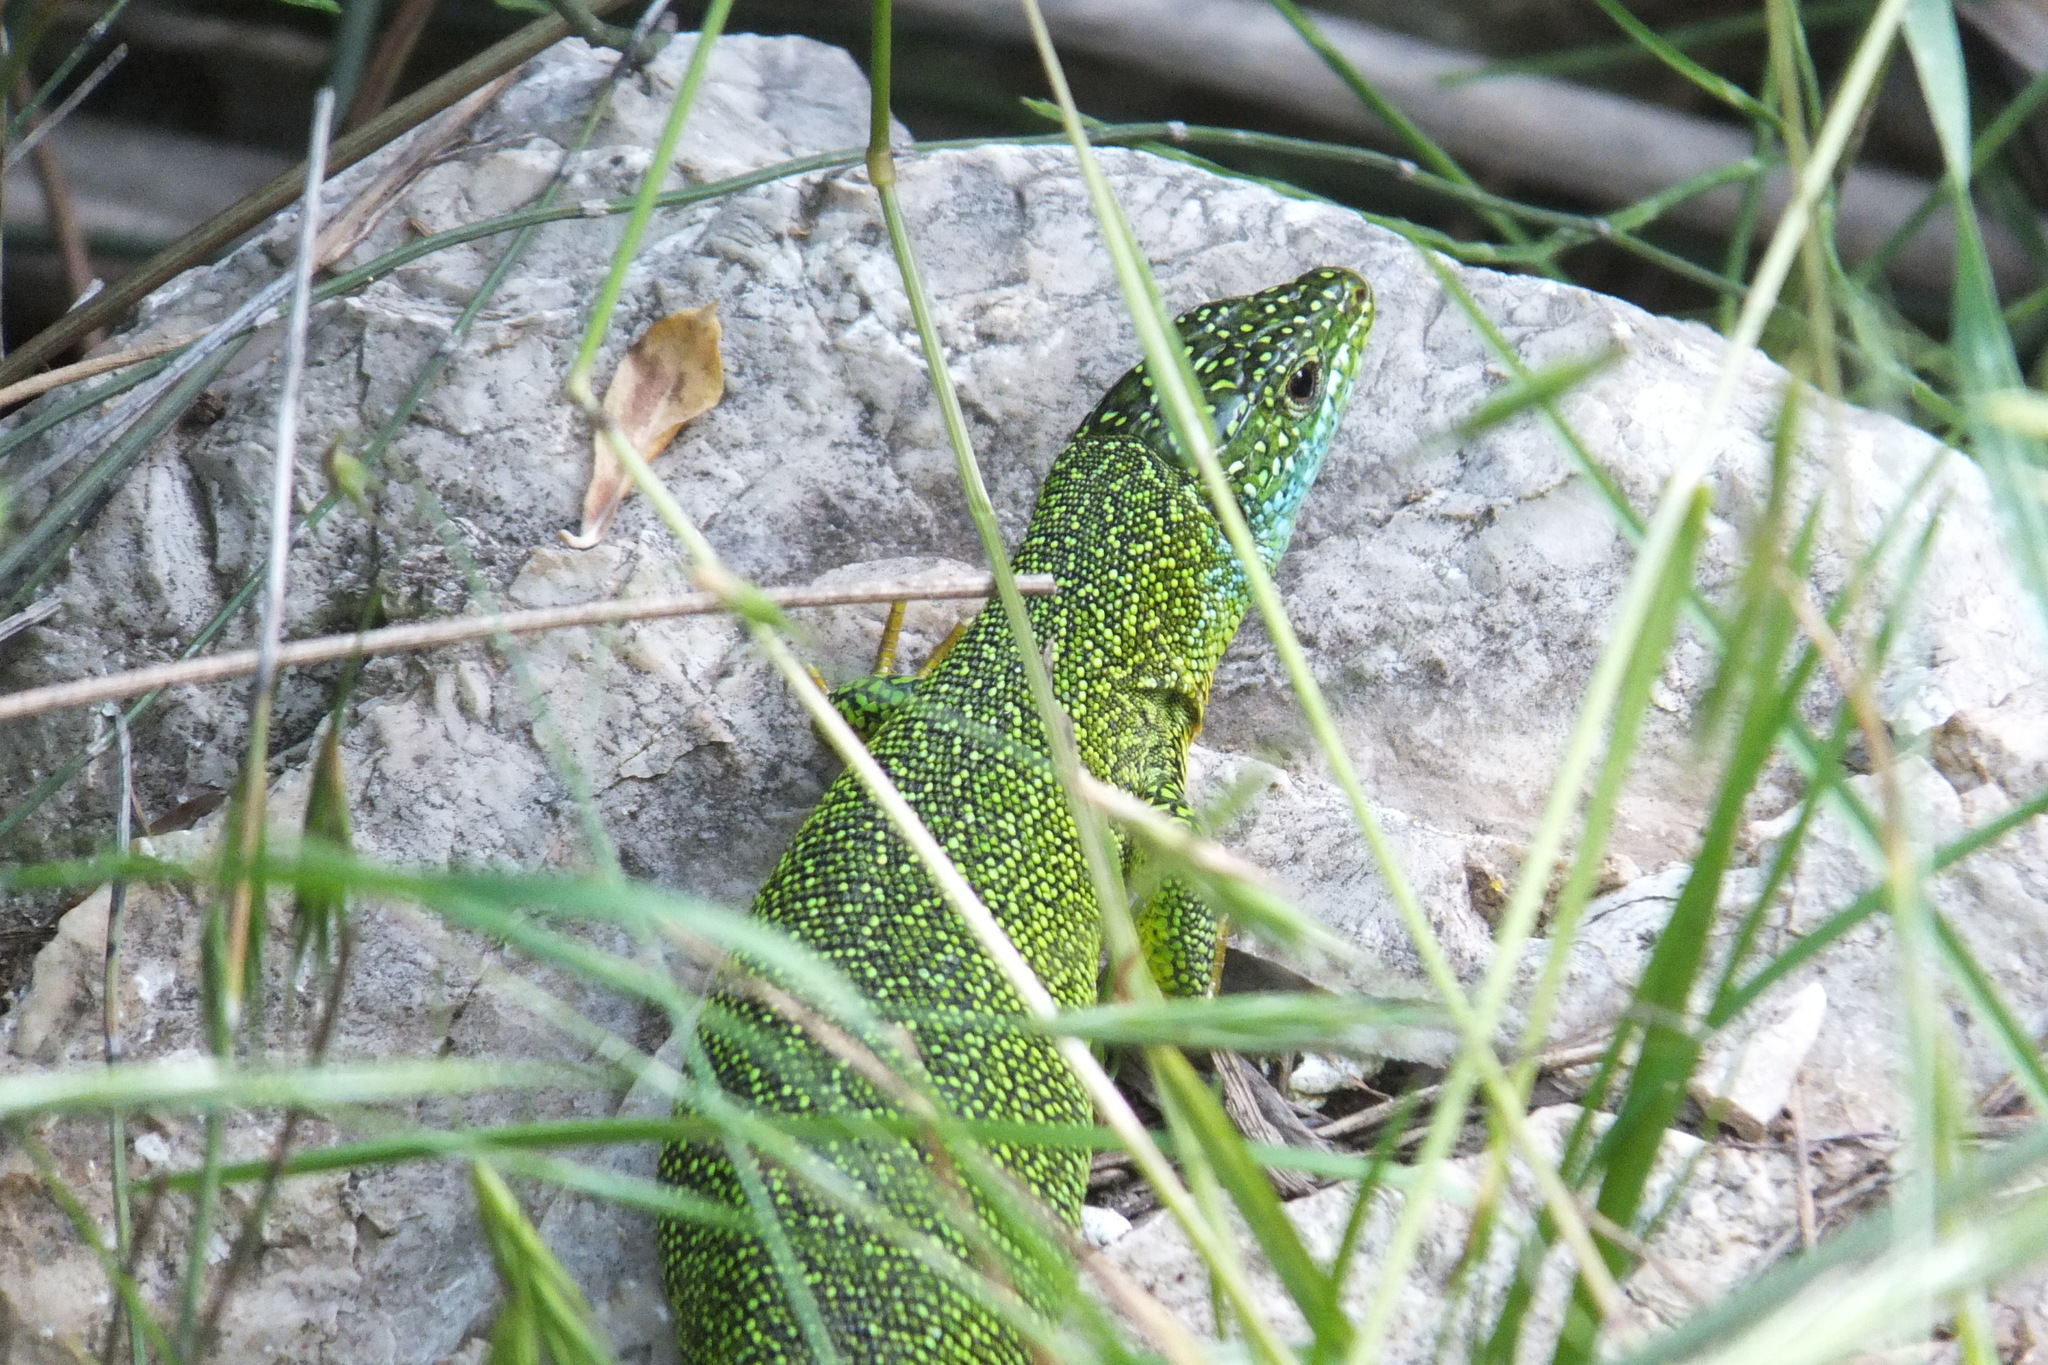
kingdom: Animalia
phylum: Chordata
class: Squamata
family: Lacertidae
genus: Lacerta
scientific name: Lacerta bilineata
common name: Western green lizard
